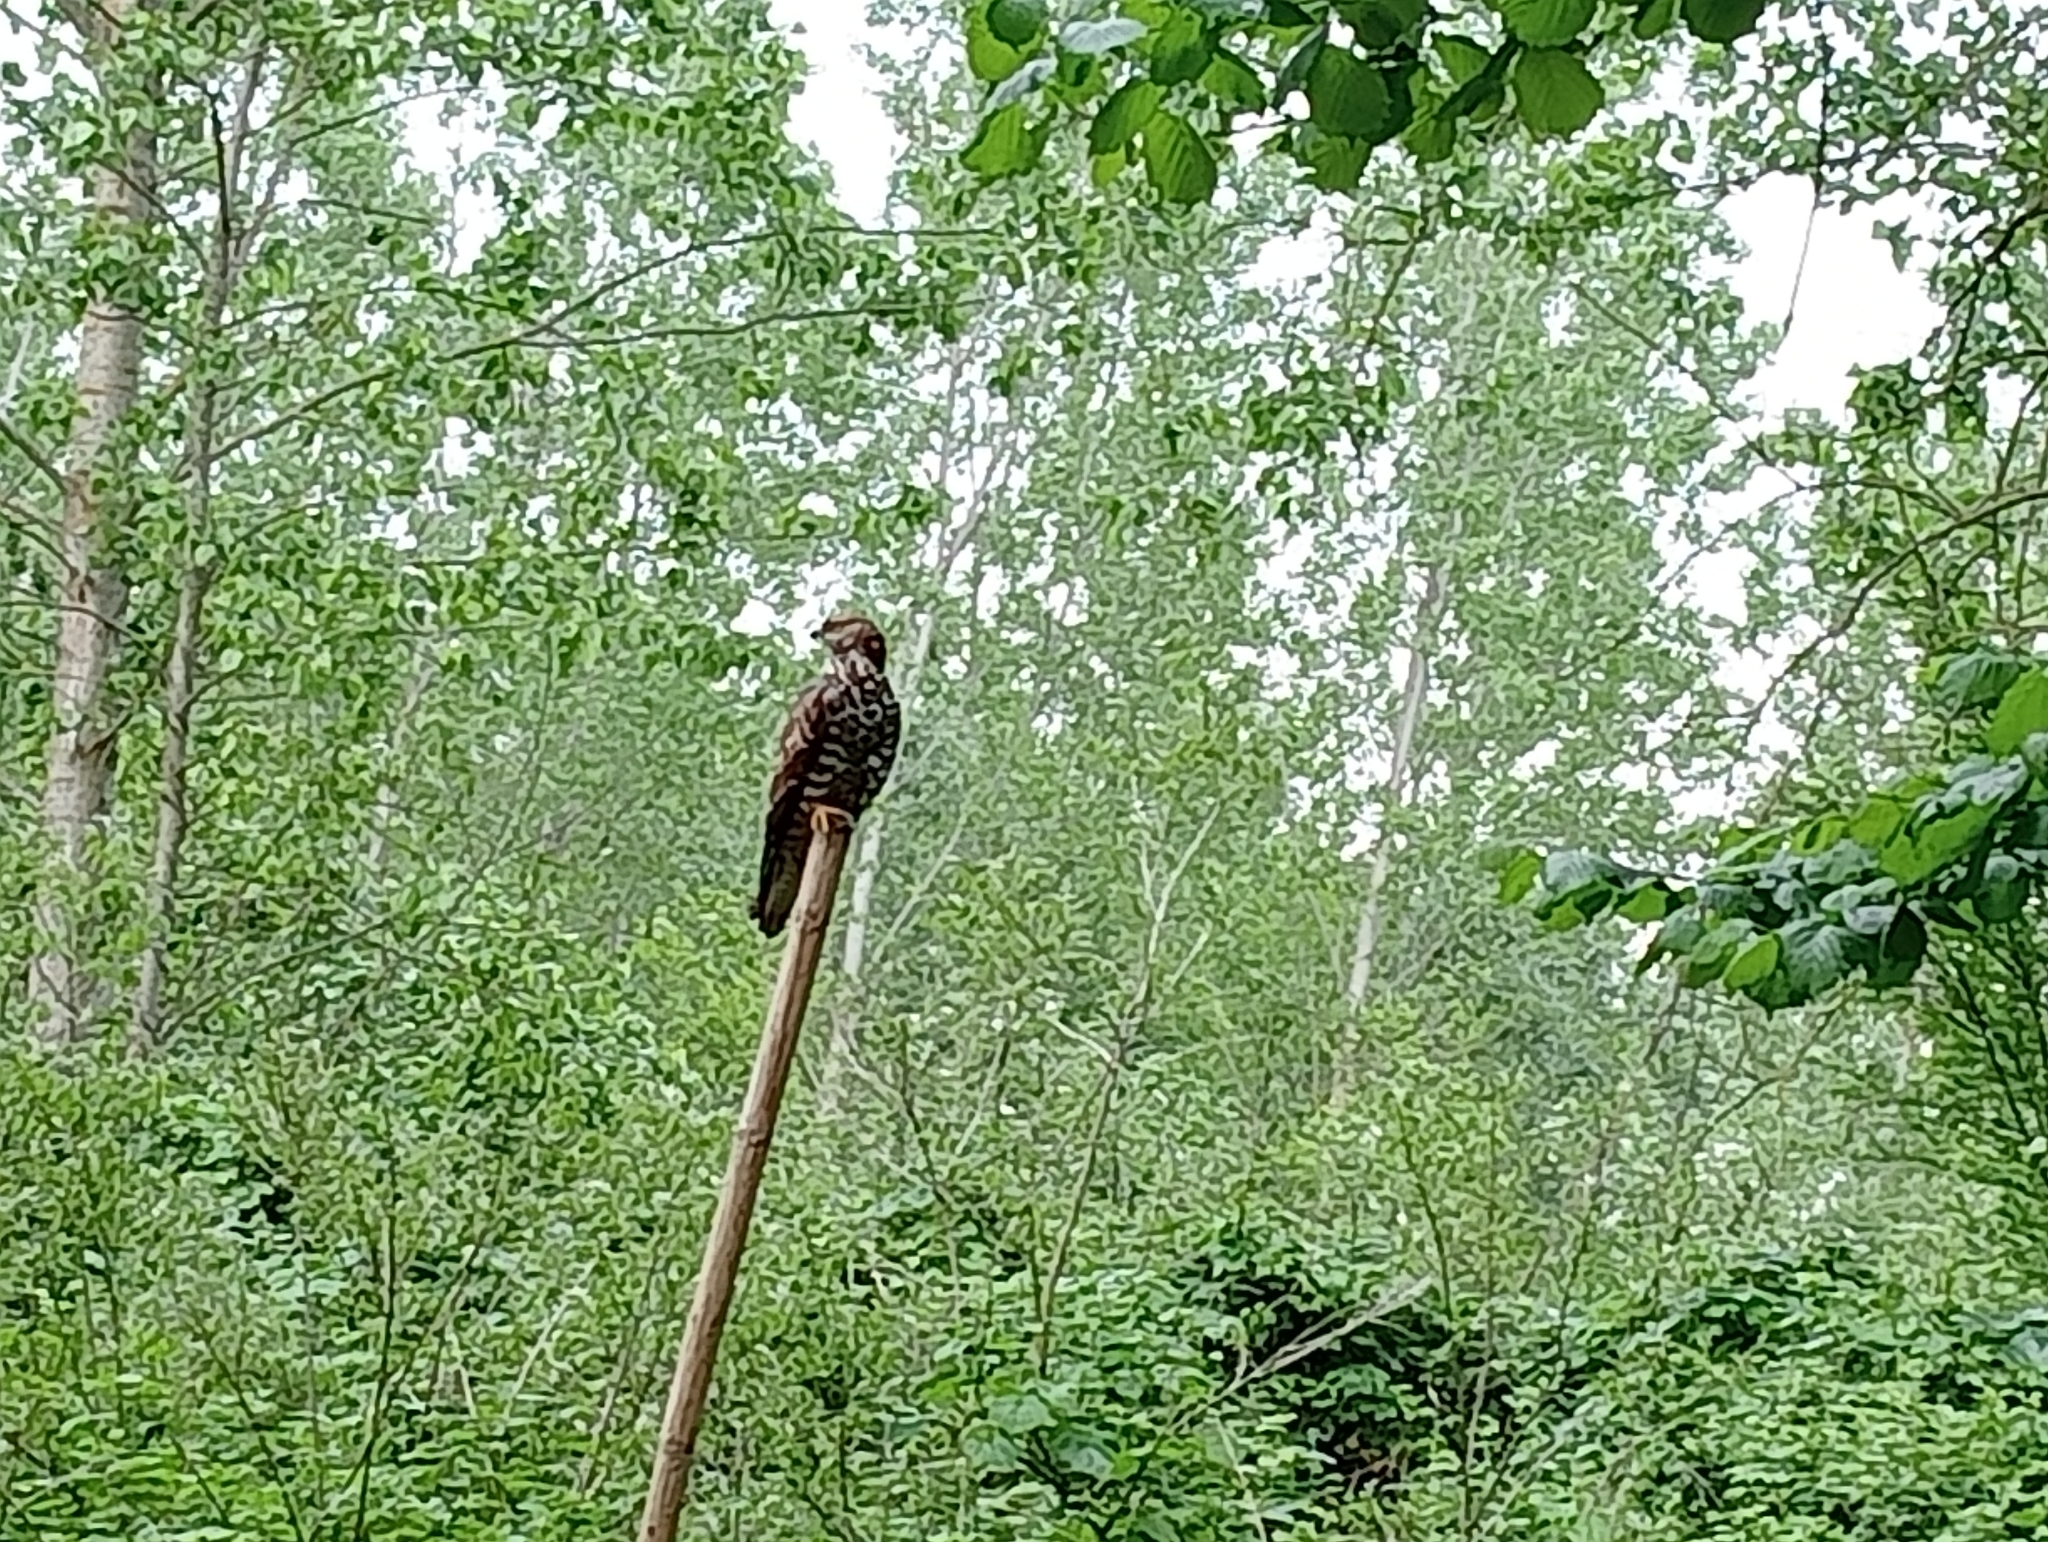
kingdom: Animalia
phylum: Chordata
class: Aves
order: Accipitriformes
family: Accipitridae
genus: Pernis
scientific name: Pernis apivorus
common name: European honey buzzard
